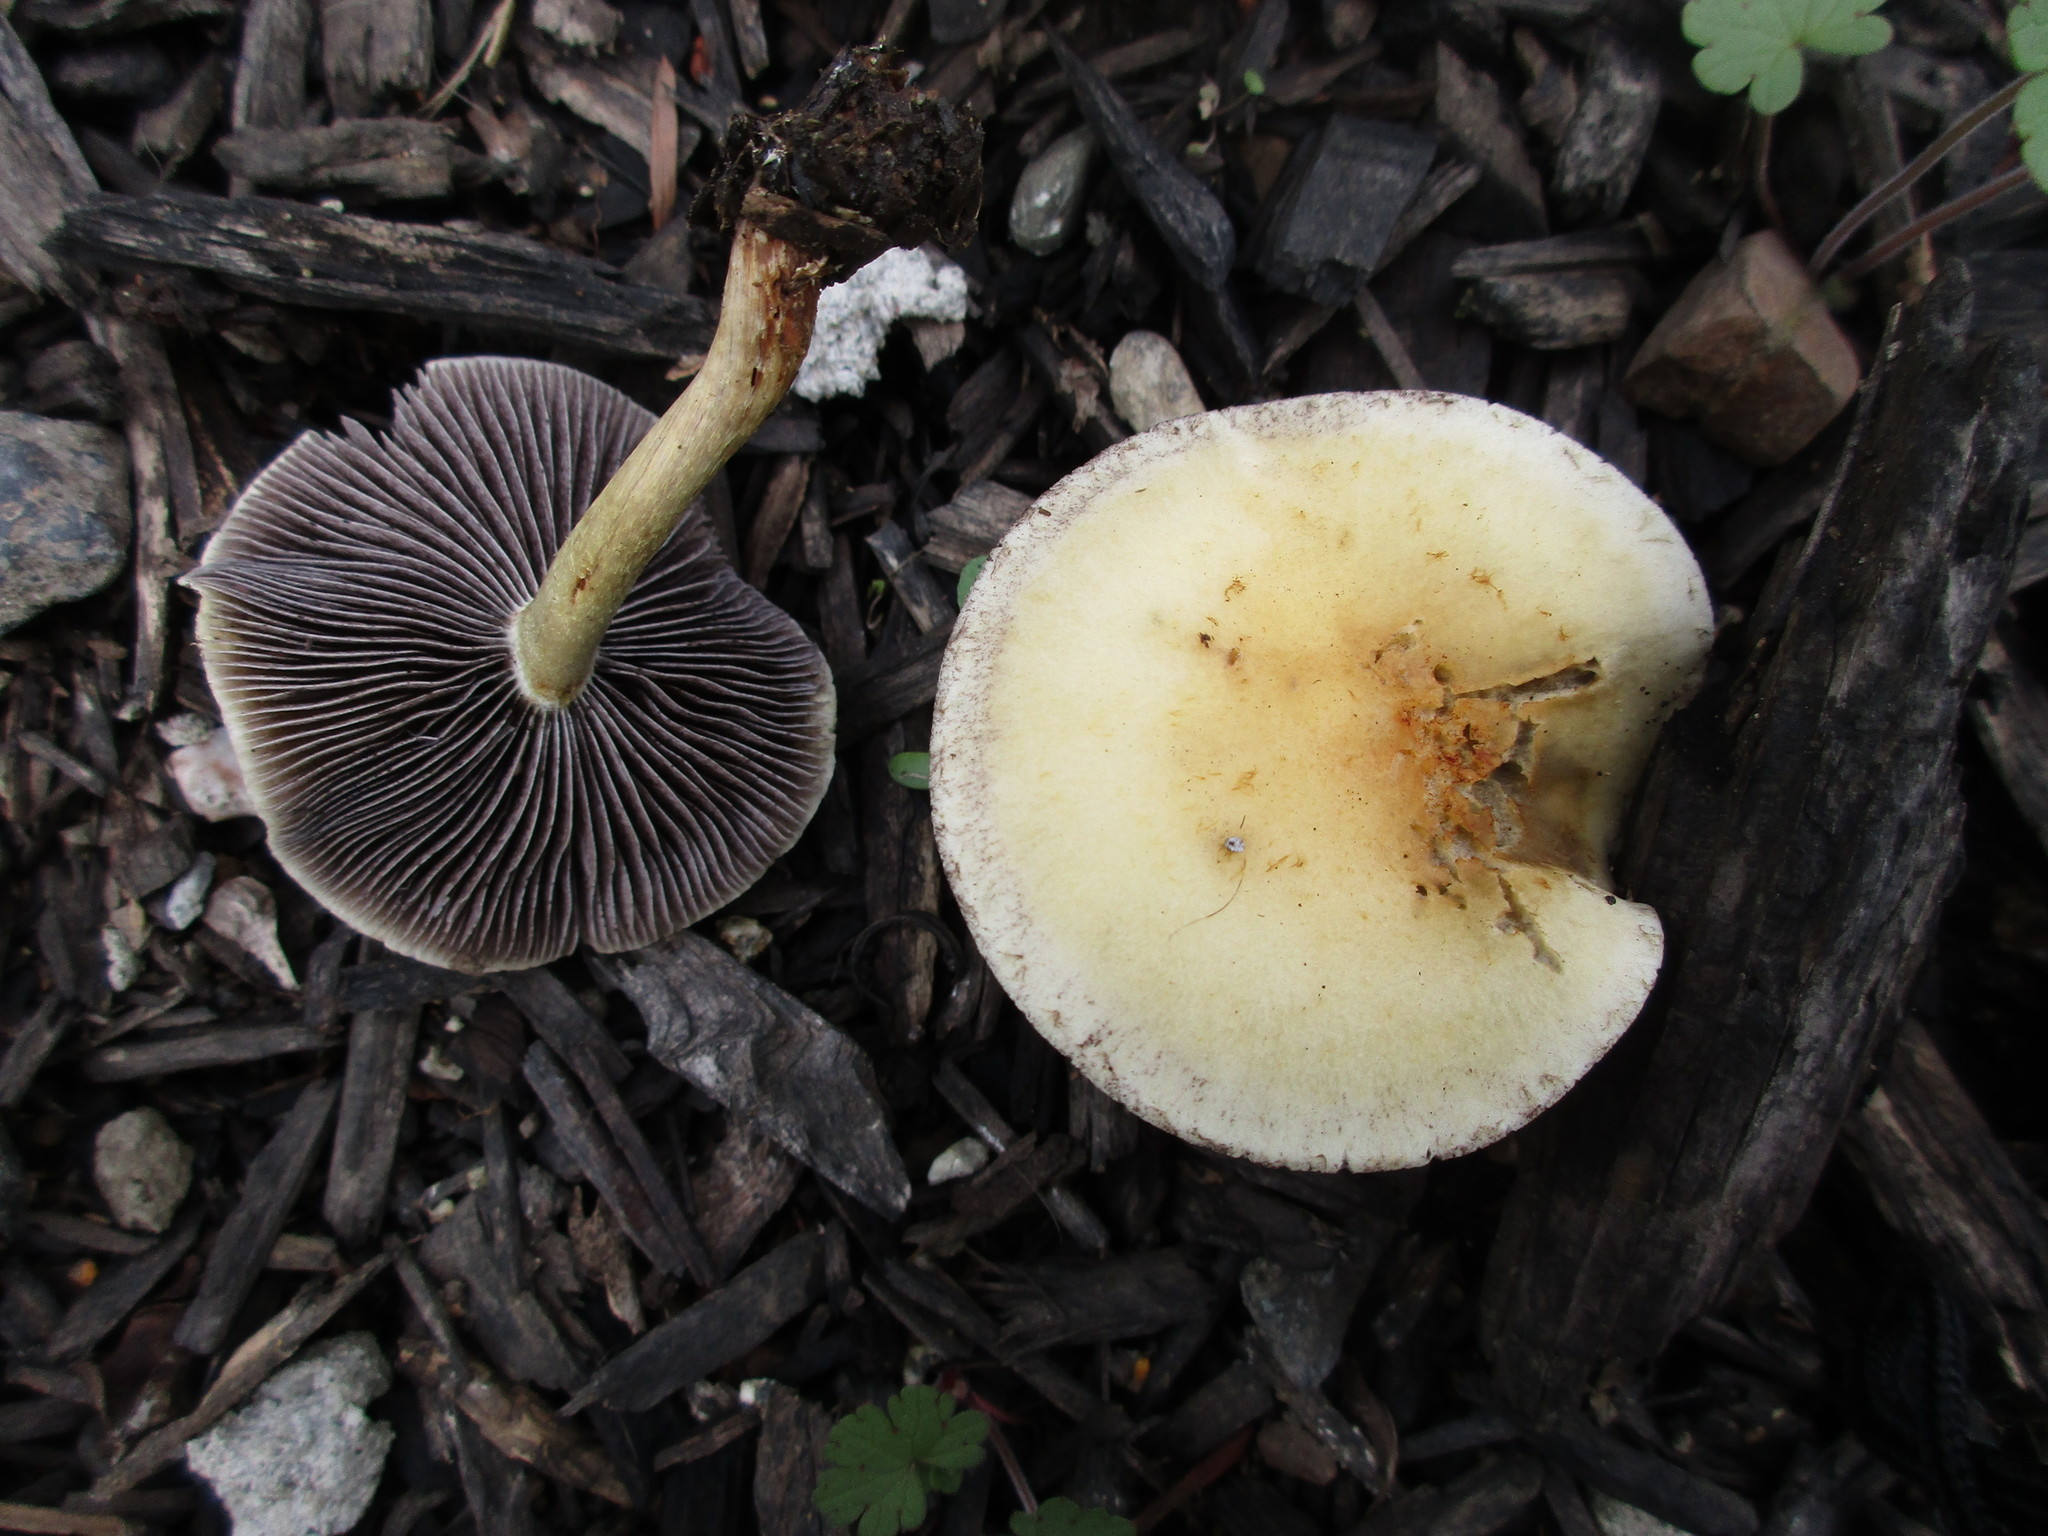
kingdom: Fungi
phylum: Basidiomycota
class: Agaricomycetes
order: Agaricales
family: Strophariaceae
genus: Leratiomyces
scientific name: Leratiomyces percevalii
